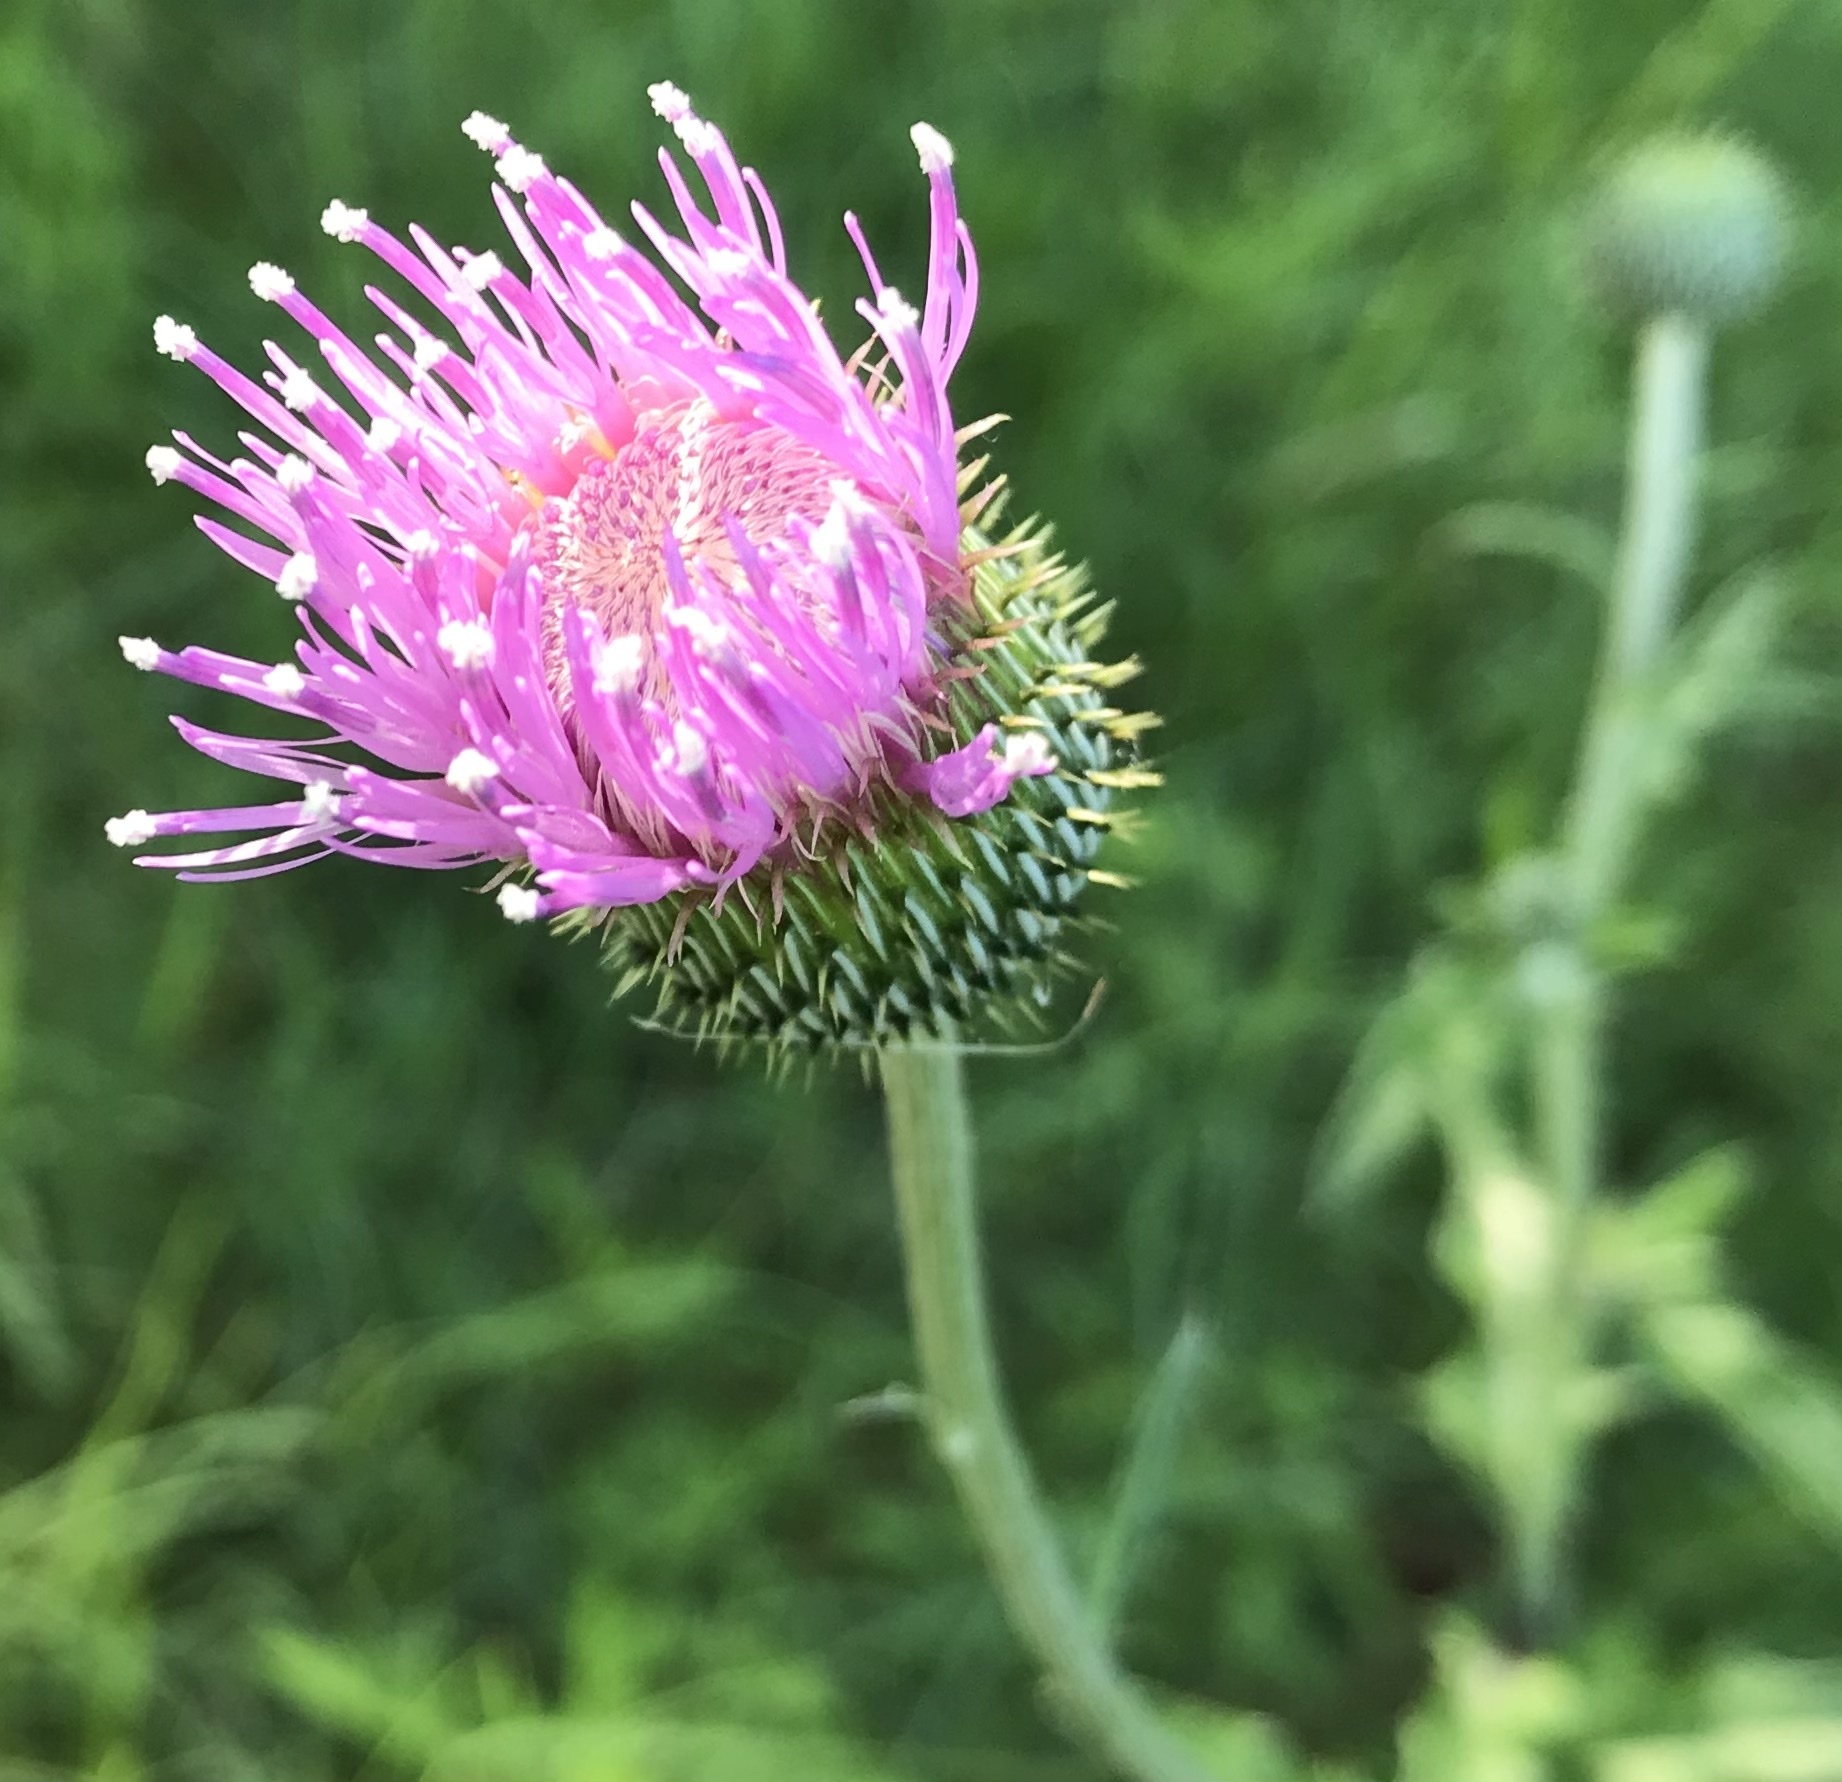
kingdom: Plantae
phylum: Tracheophyta
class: Magnoliopsida
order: Asterales
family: Asteraceae
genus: Cirsium
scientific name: Cirsium texanum
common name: Texas purple thistle
